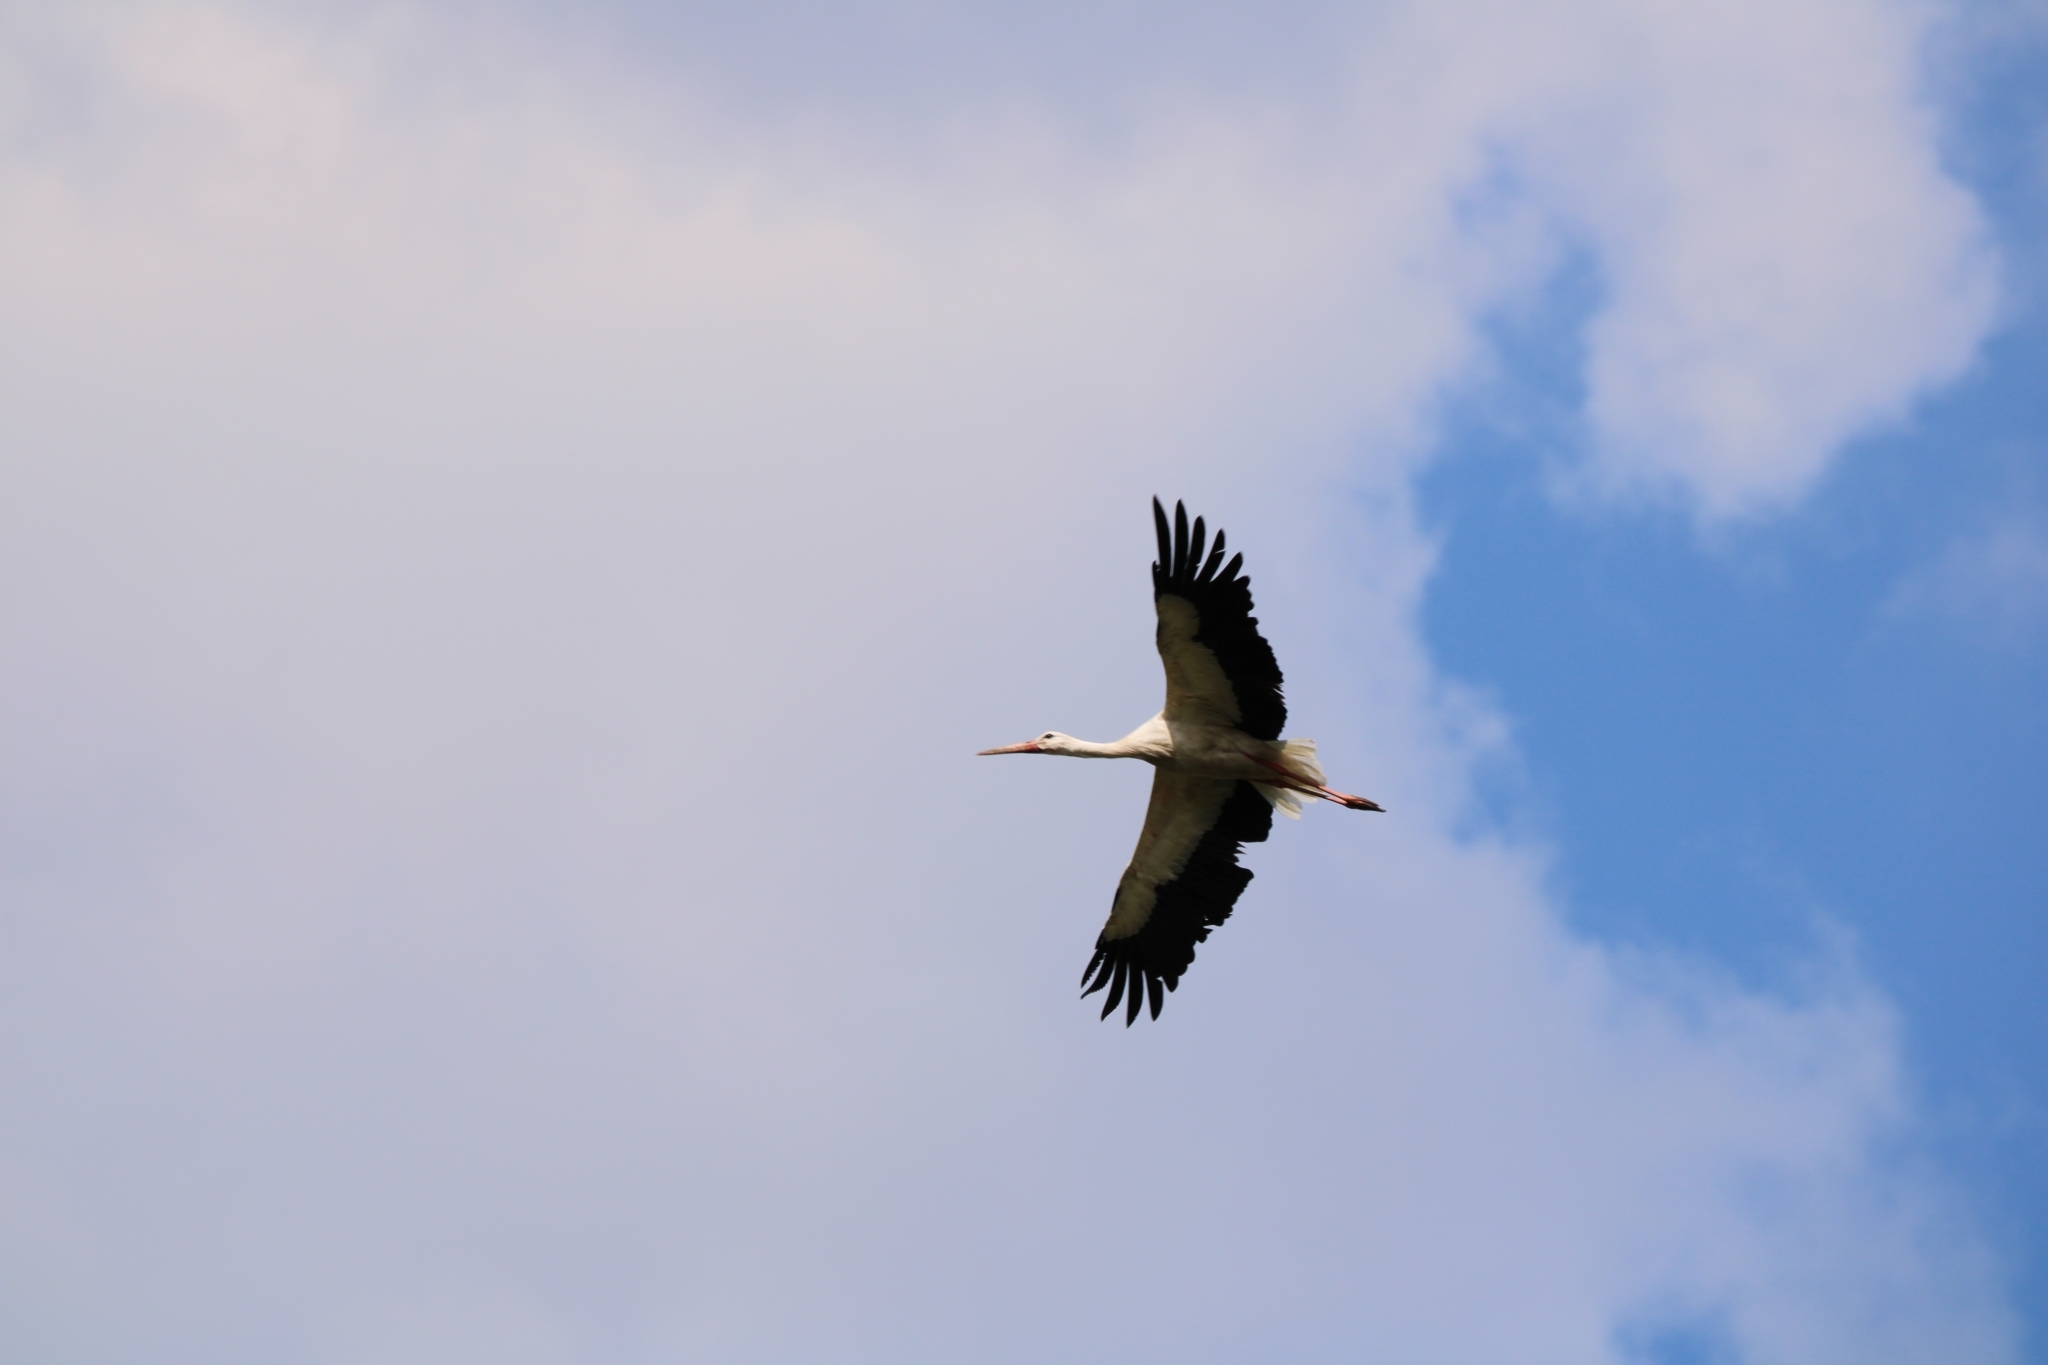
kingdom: Animalia
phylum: Chordata
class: Aves
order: Ciconiiformes
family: Ciconiidae
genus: Ciconia
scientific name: Ciconia ciconia
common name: White stork
